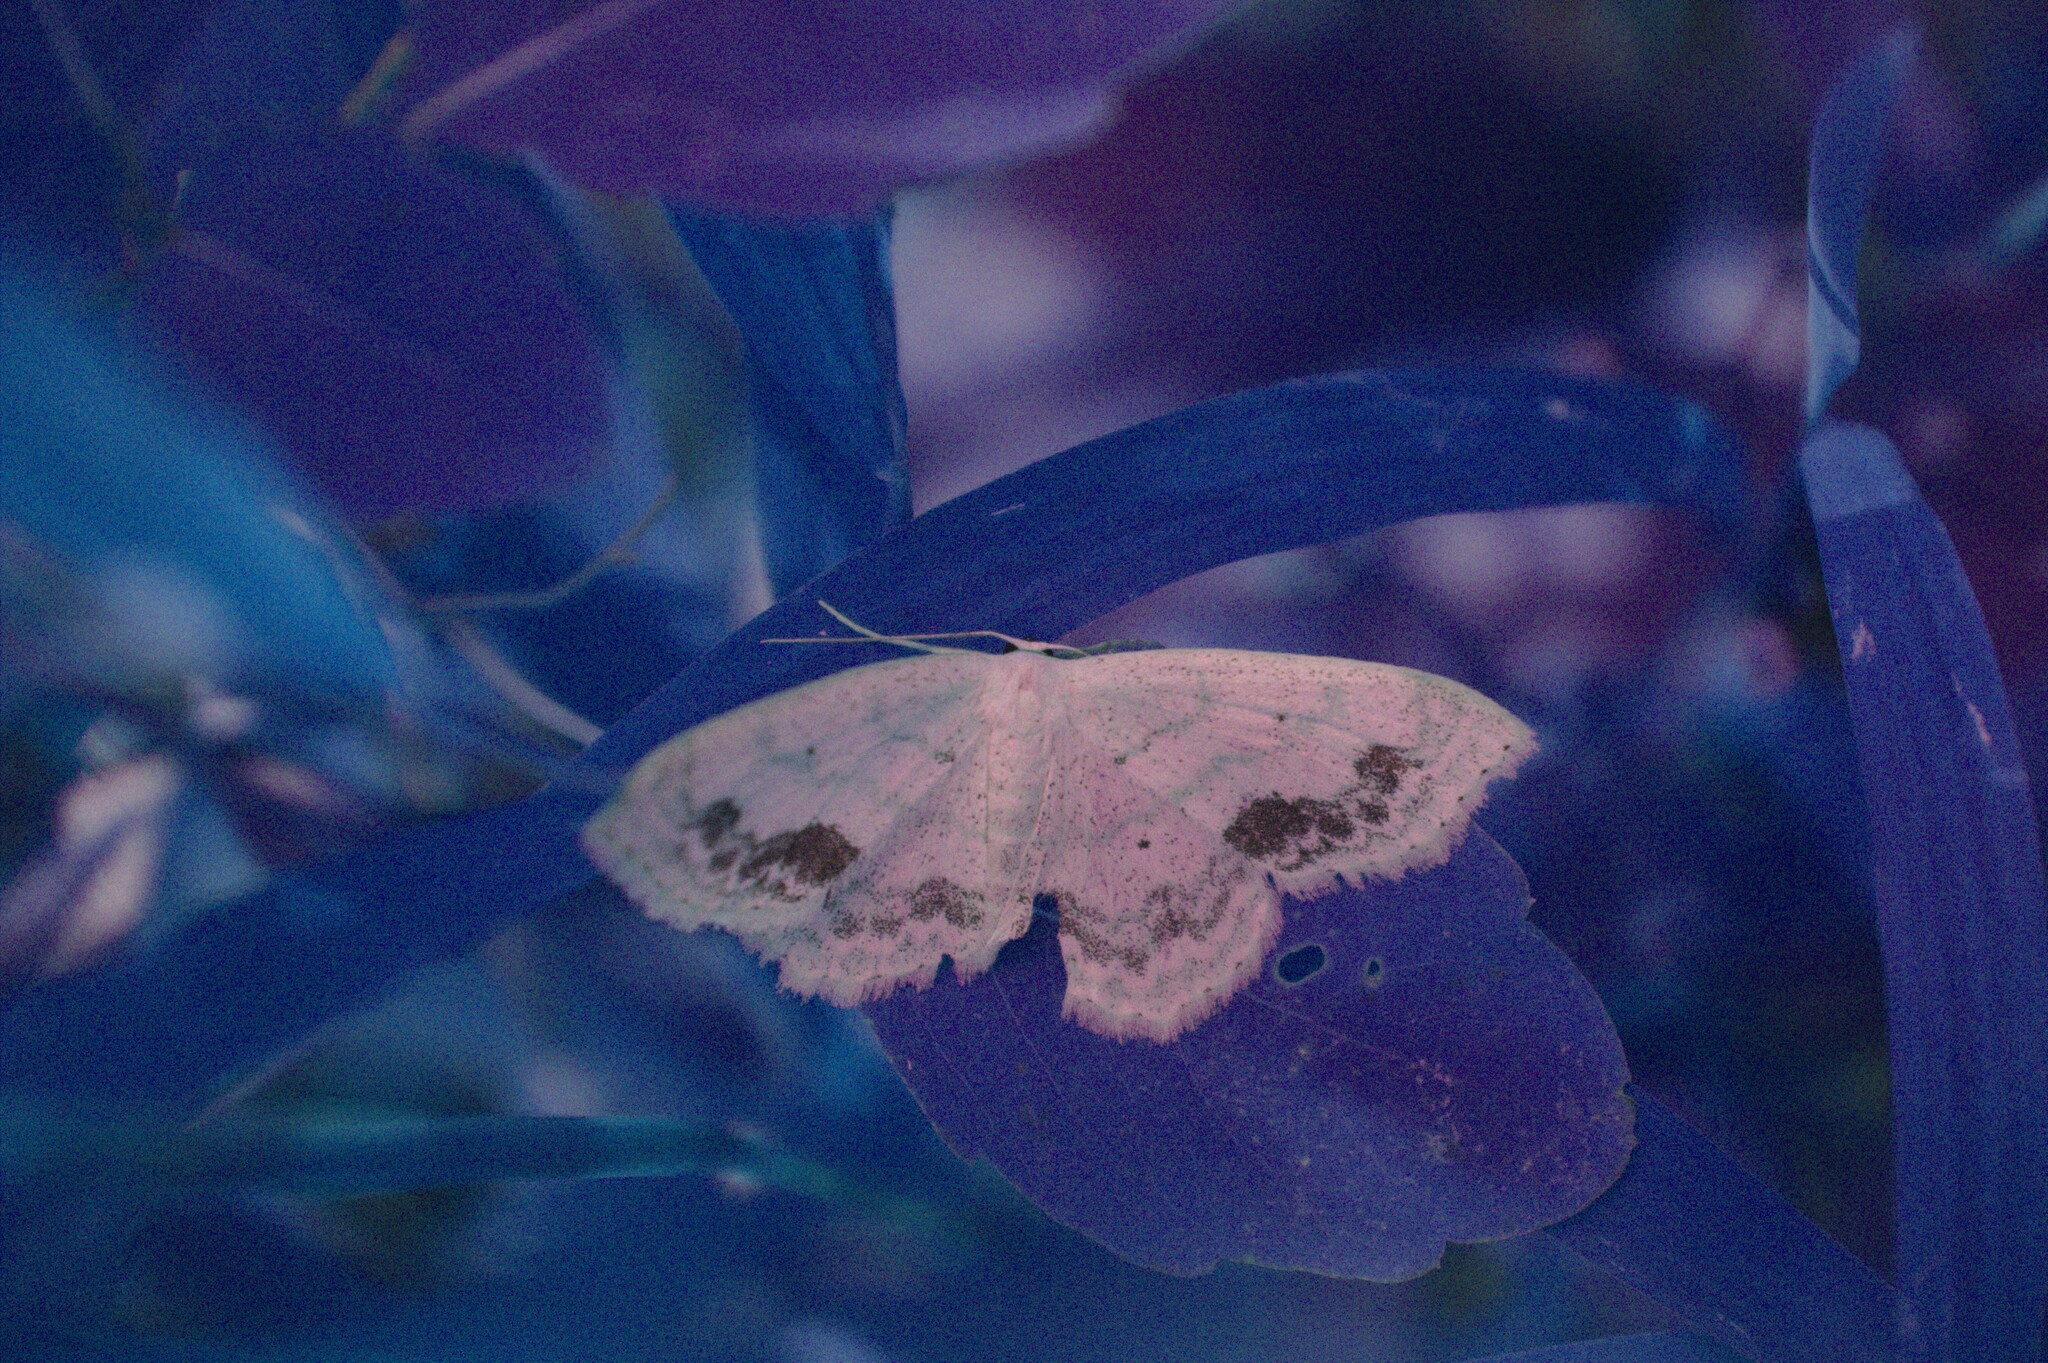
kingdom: Animalia
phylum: Arthropoda
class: Insecta
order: Lepidoptera
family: Geometridae
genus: Scopula
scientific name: Scopula limboundata
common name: Large lace border
